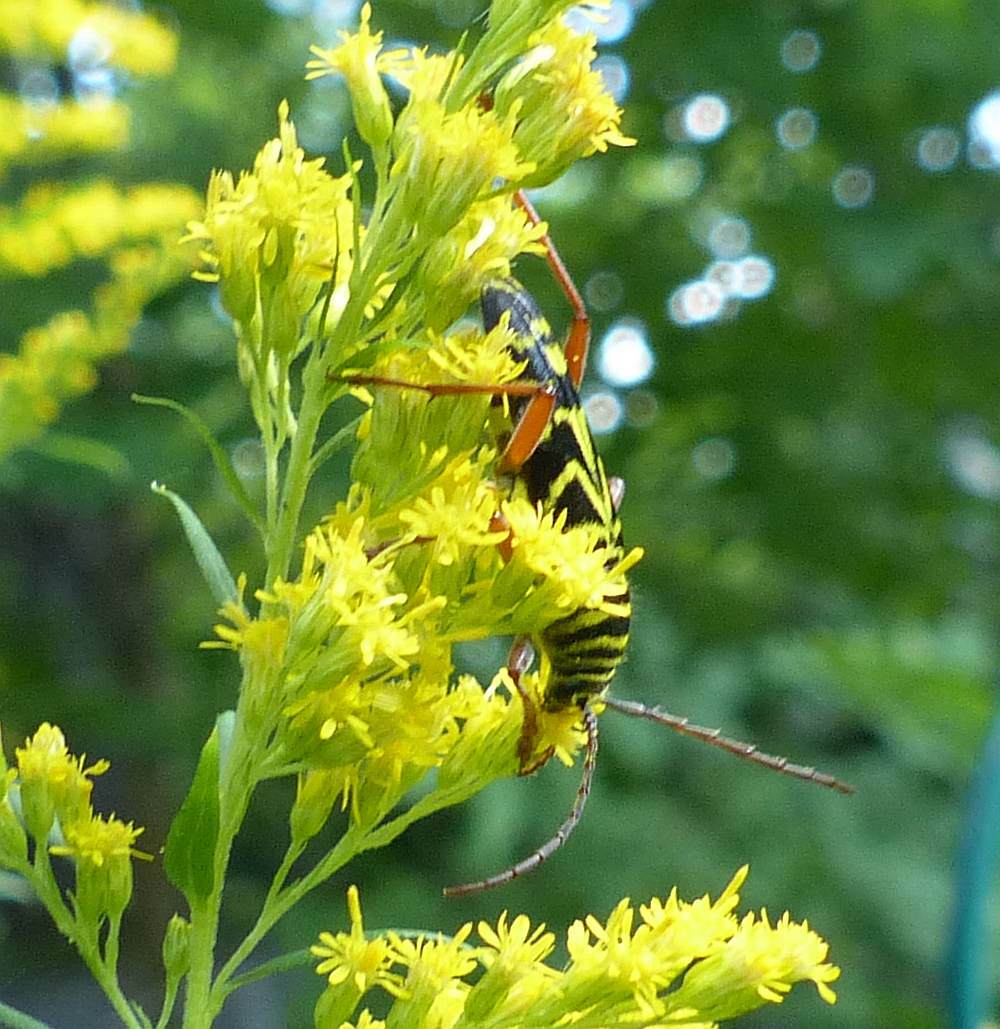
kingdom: Animalia
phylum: Arthropoda
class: Insecta
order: Coleoptera
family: Cerambycidae
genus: Megacyllene
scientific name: Megacyllene robiniae
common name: Locust borer
